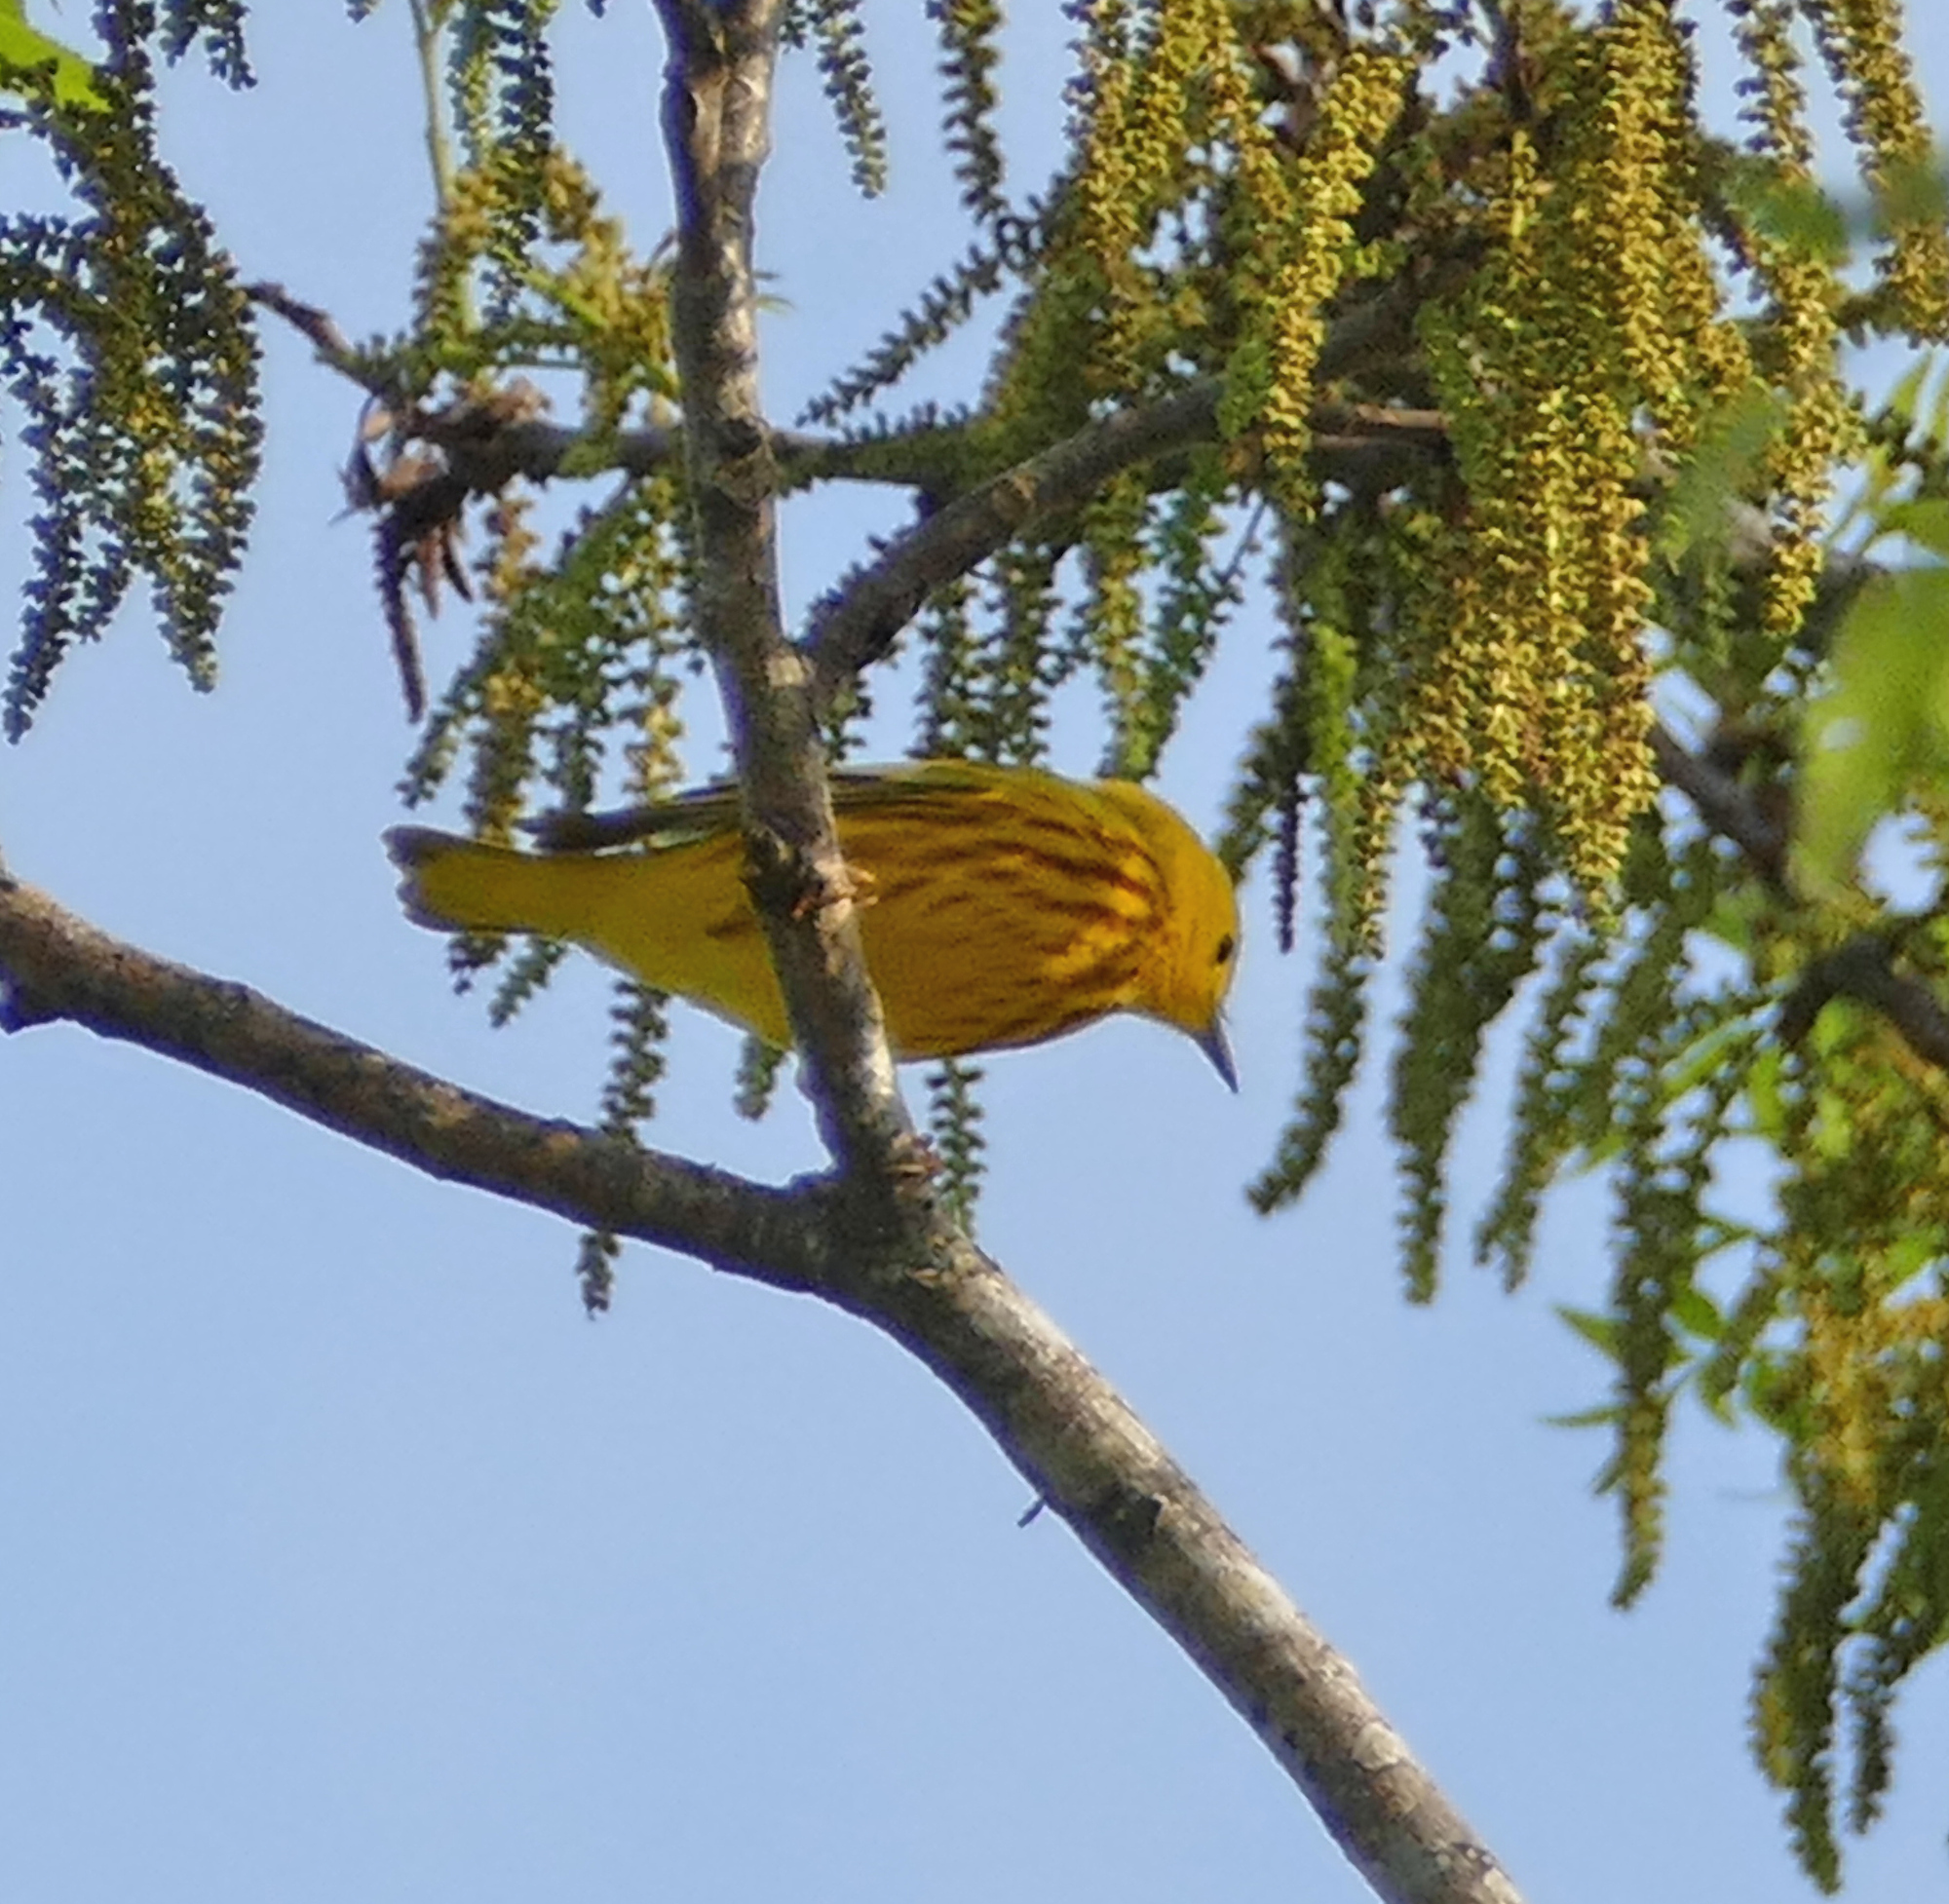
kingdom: Animalia
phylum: Chordata
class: Aves
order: Passeriformes
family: Parulidae
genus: Setophaga
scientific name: Setophaga petechia
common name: Yellow warbler
